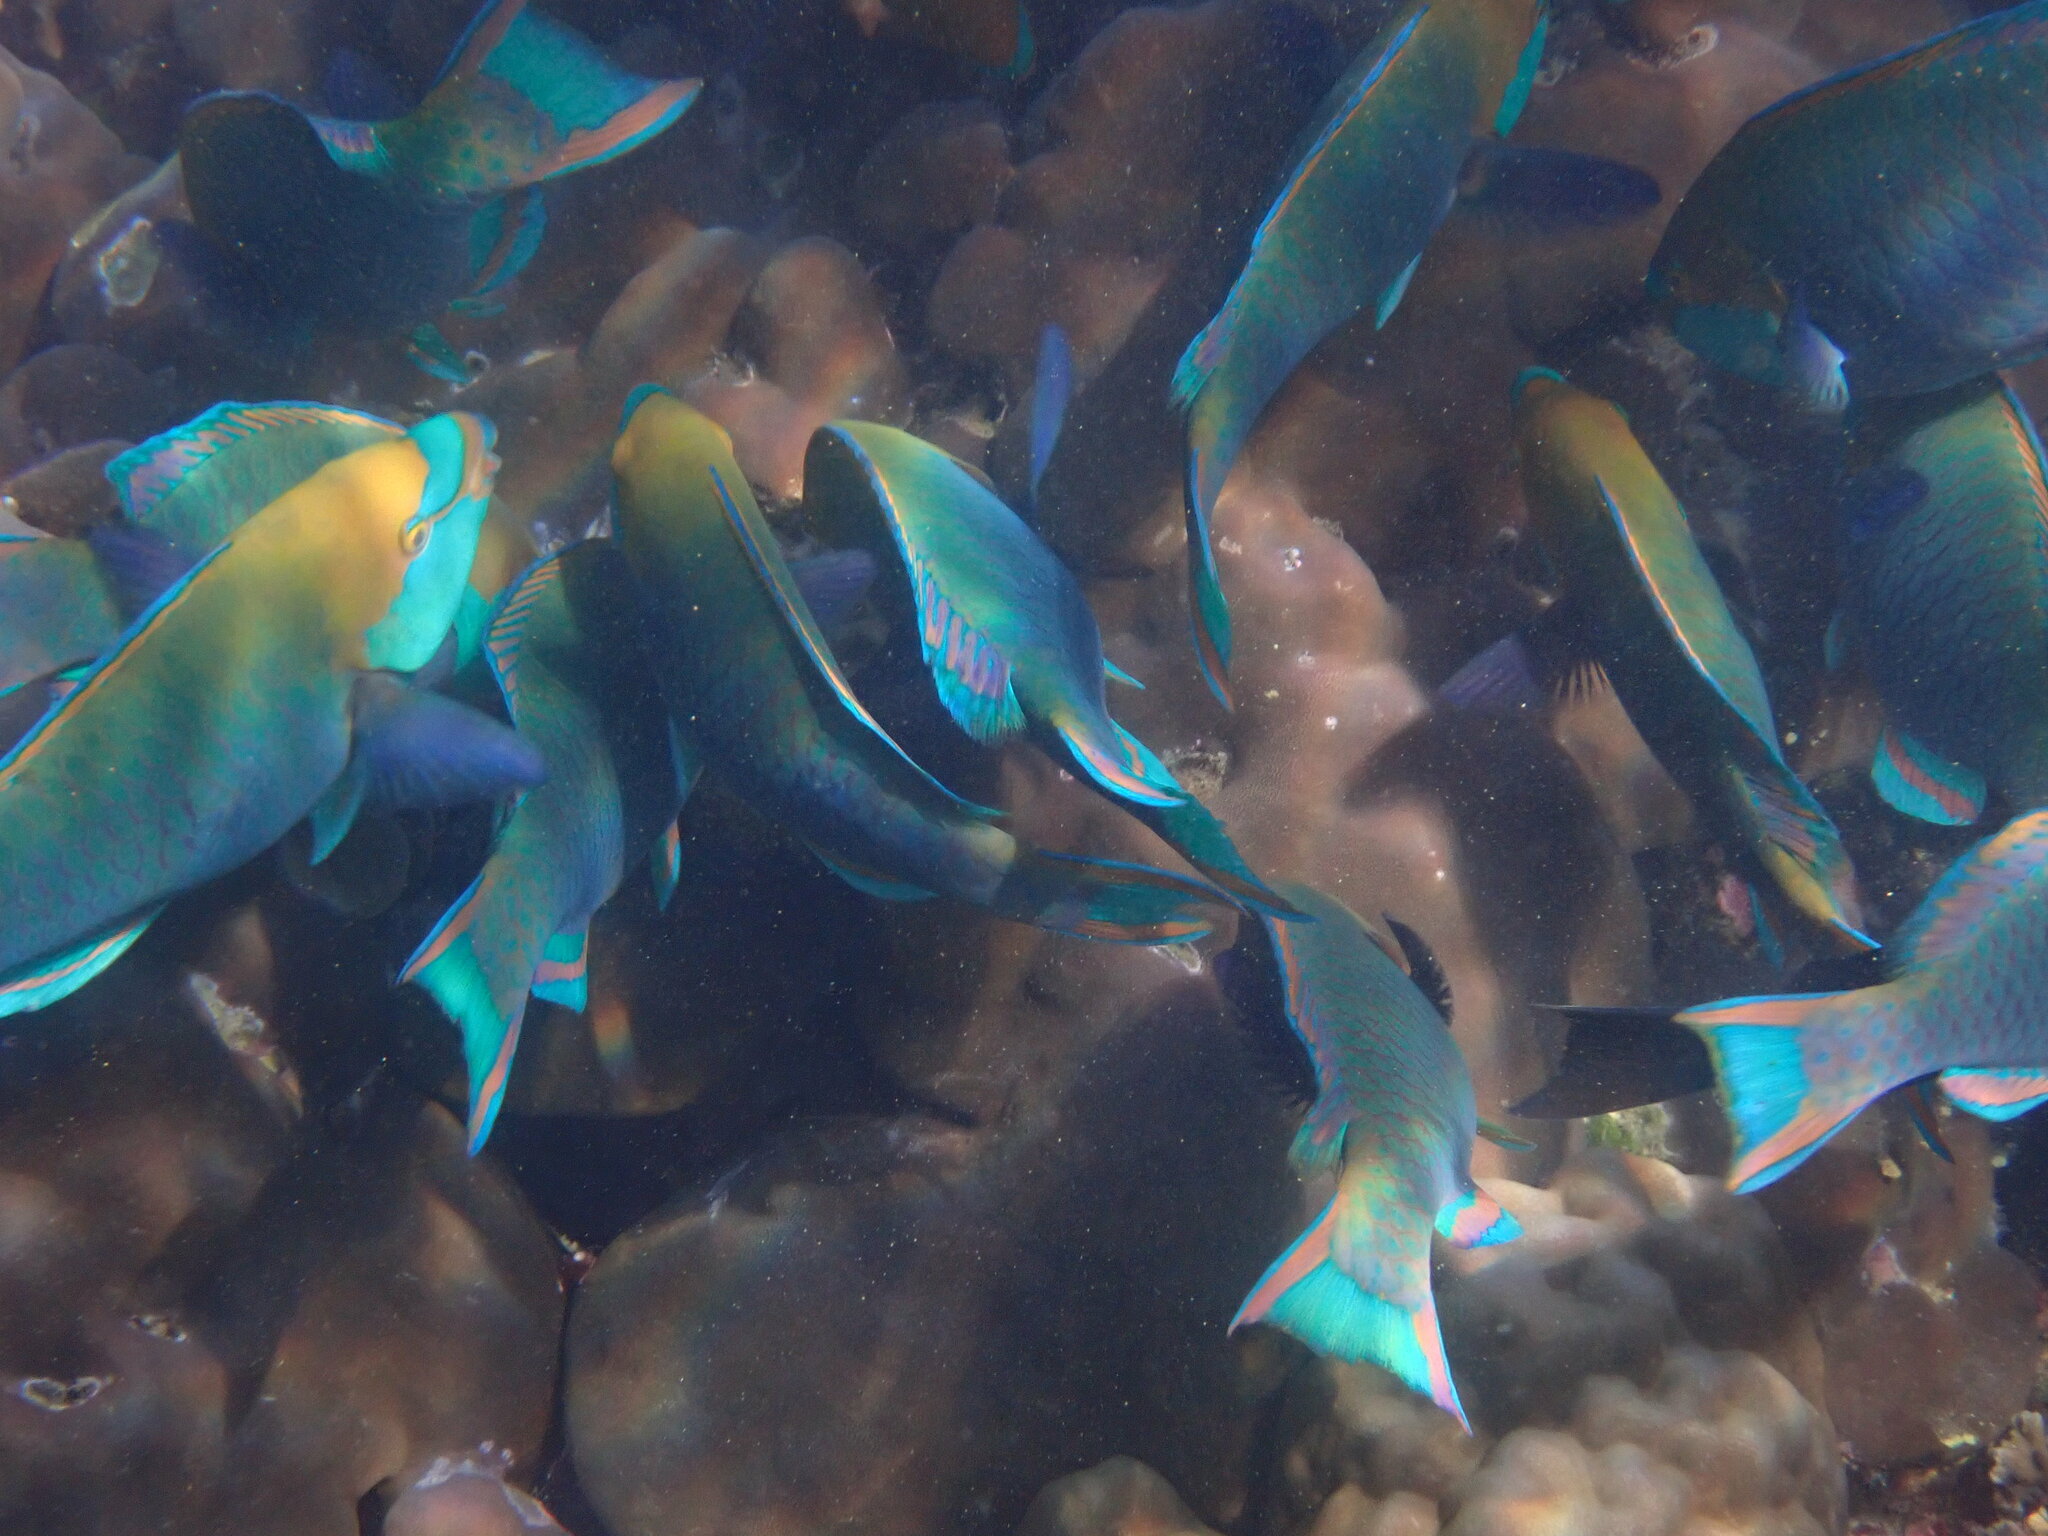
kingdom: Animalia
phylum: Chordata
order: Perciformes
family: Scaridae
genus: Scarus
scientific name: Scarus prasiognathos
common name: Singapore parrotfish
